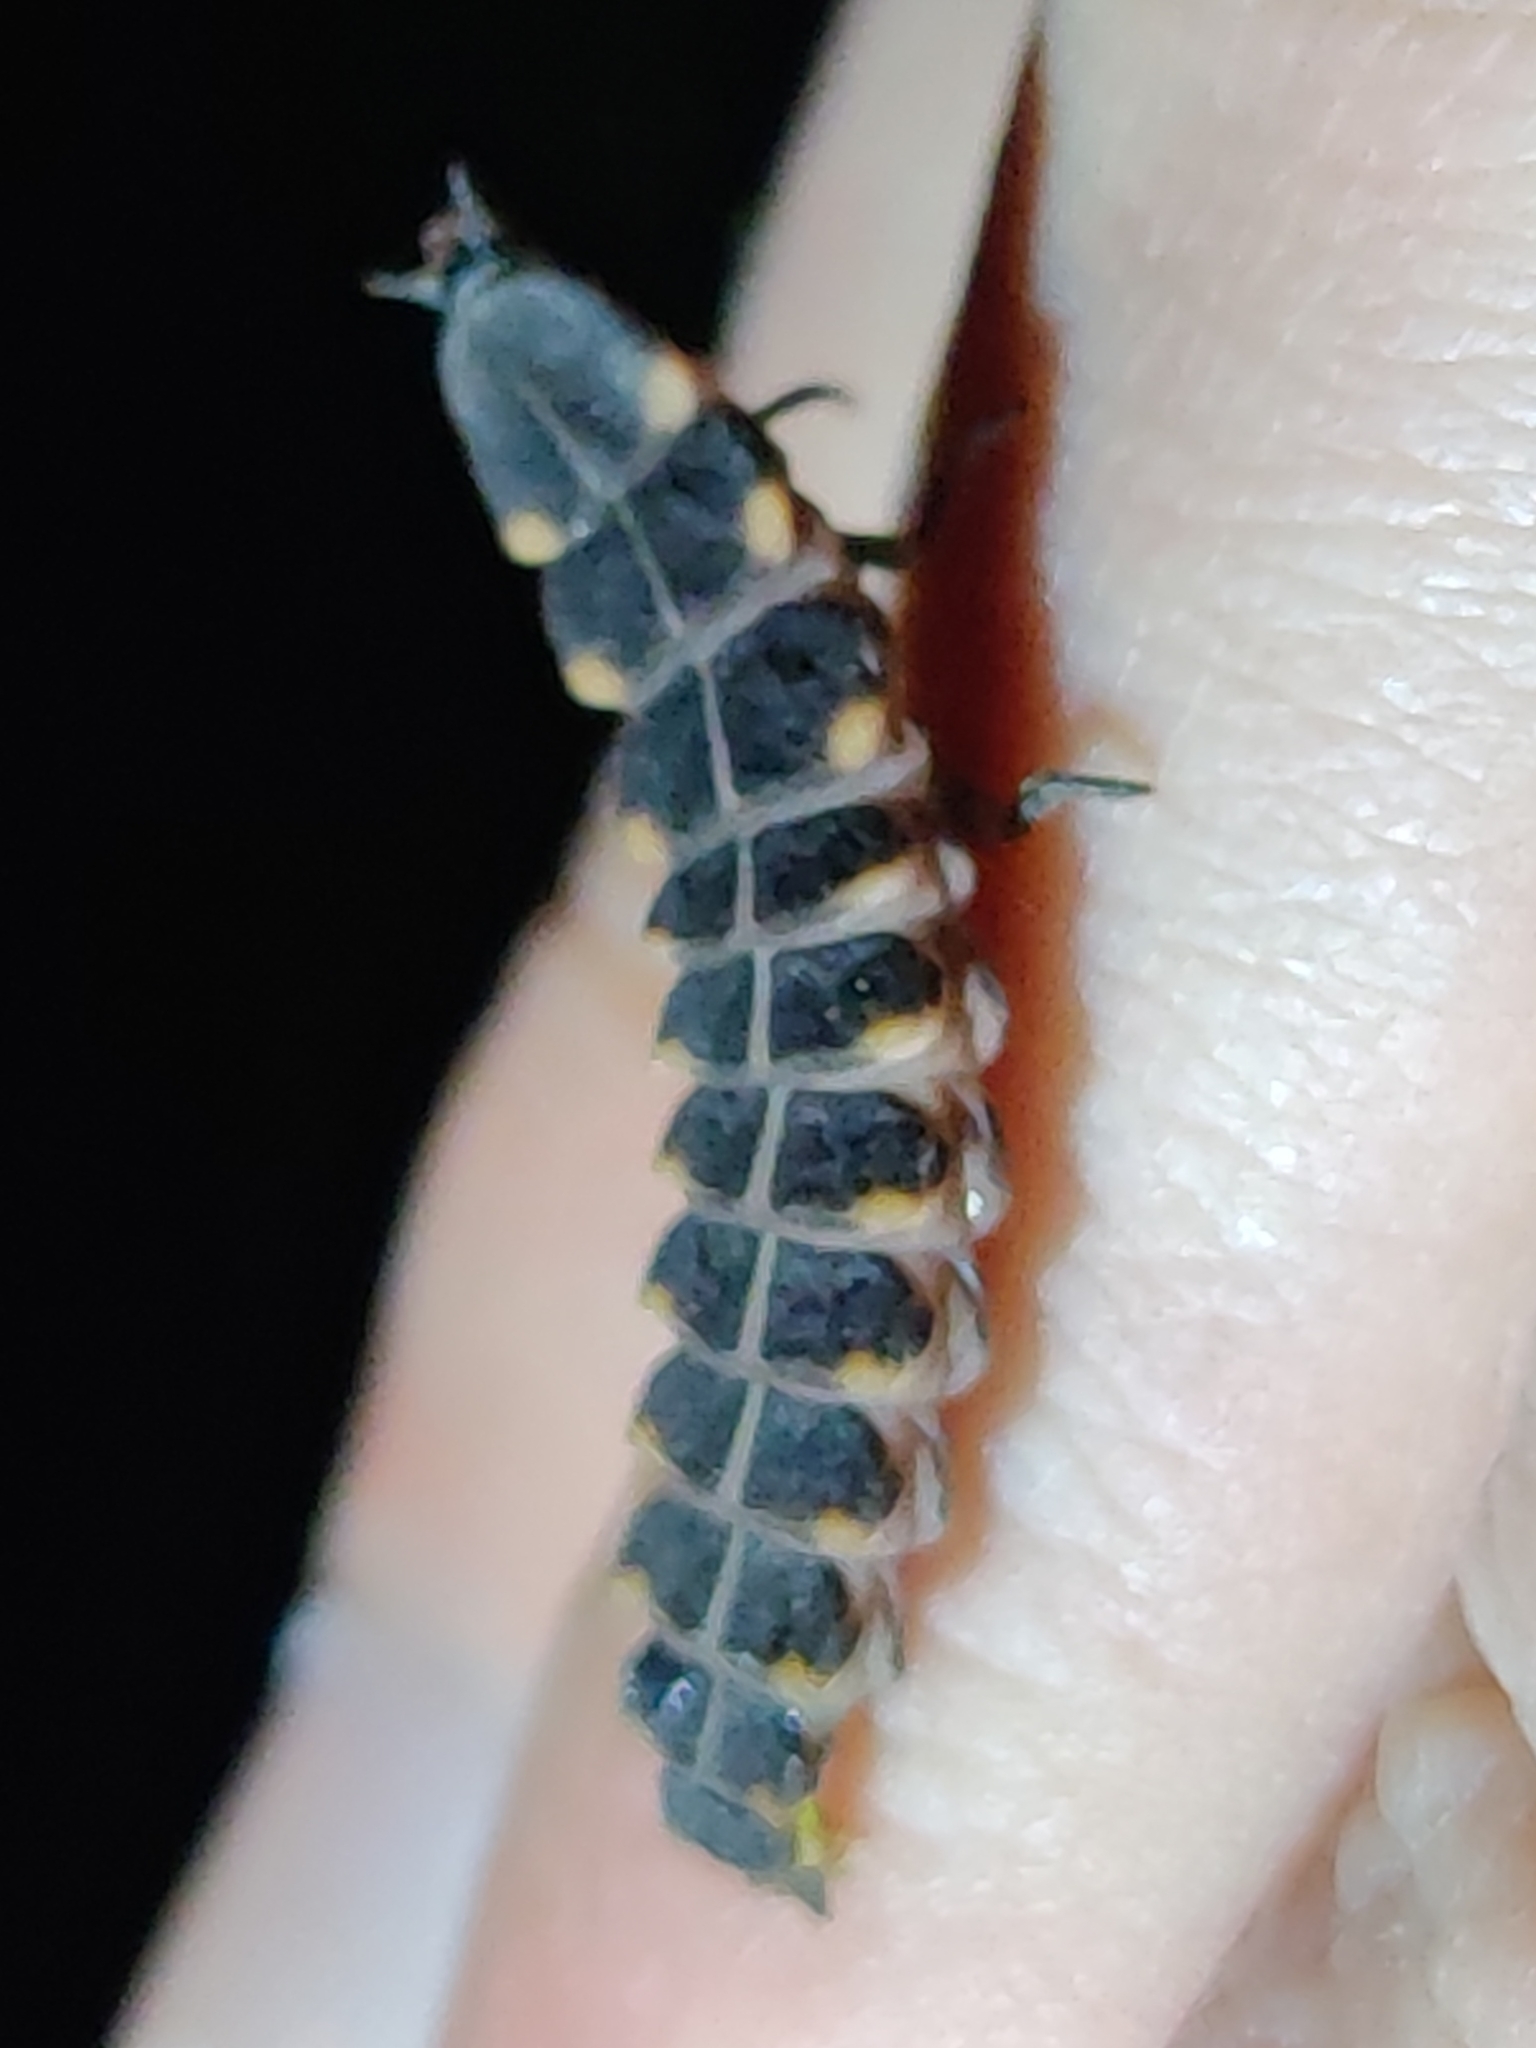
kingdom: Animalia
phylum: Arthropoda
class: Insecta
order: Coleoptera
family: Lampyridae
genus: Lampyris
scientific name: Lampyris noctiluca
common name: Glow-worm
